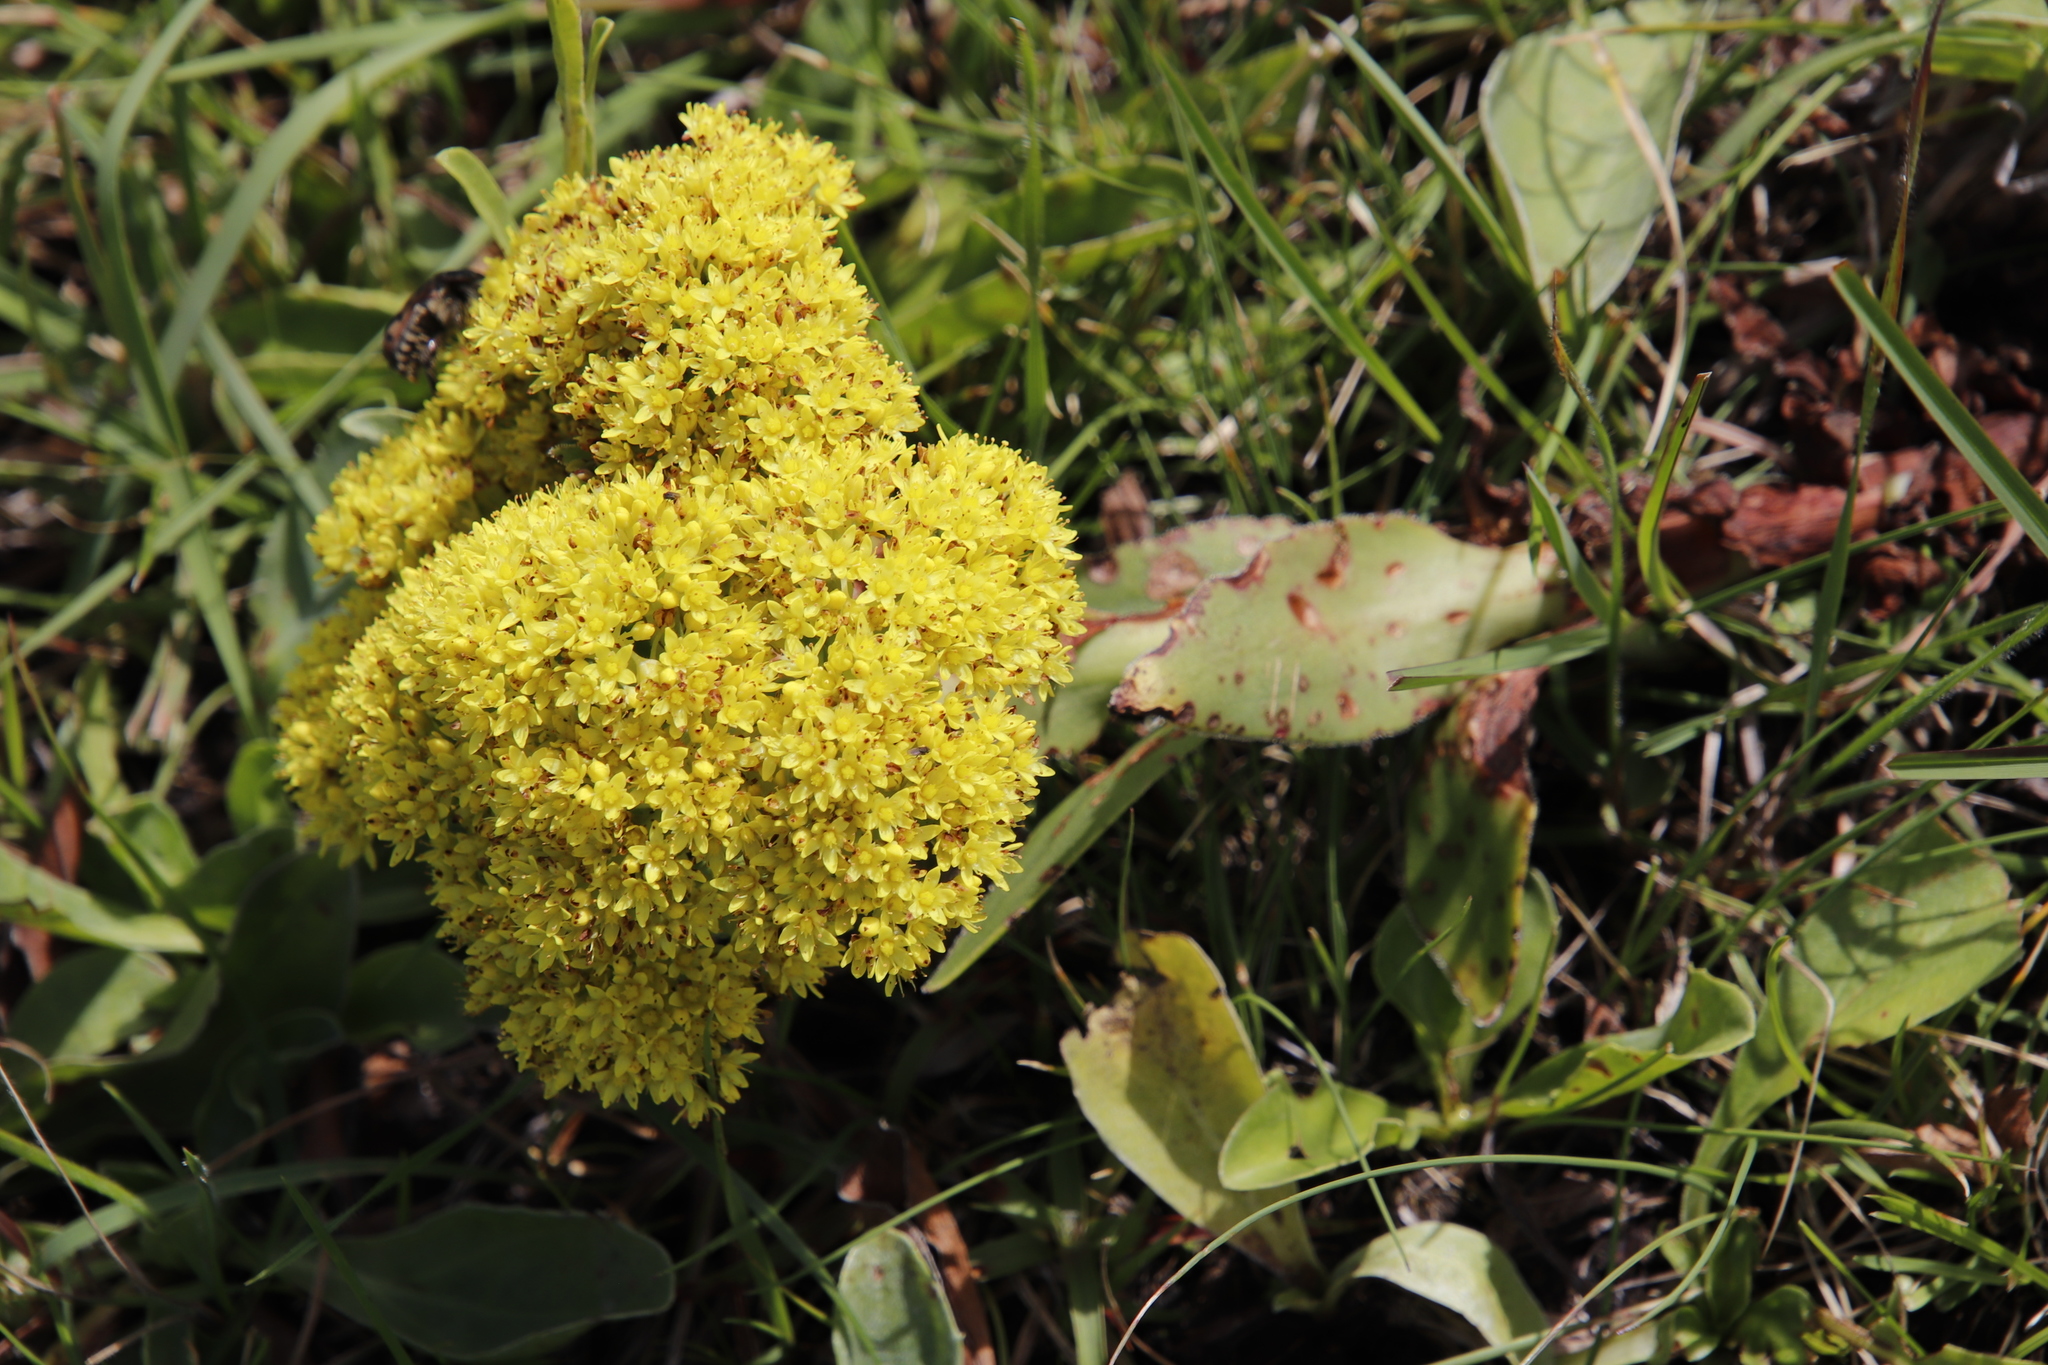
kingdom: Plantae
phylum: Tracheophyta
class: Magnoliopsida
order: Saxifragales
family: Crassulaceae
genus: Crassula
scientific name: Crassula vaginata
